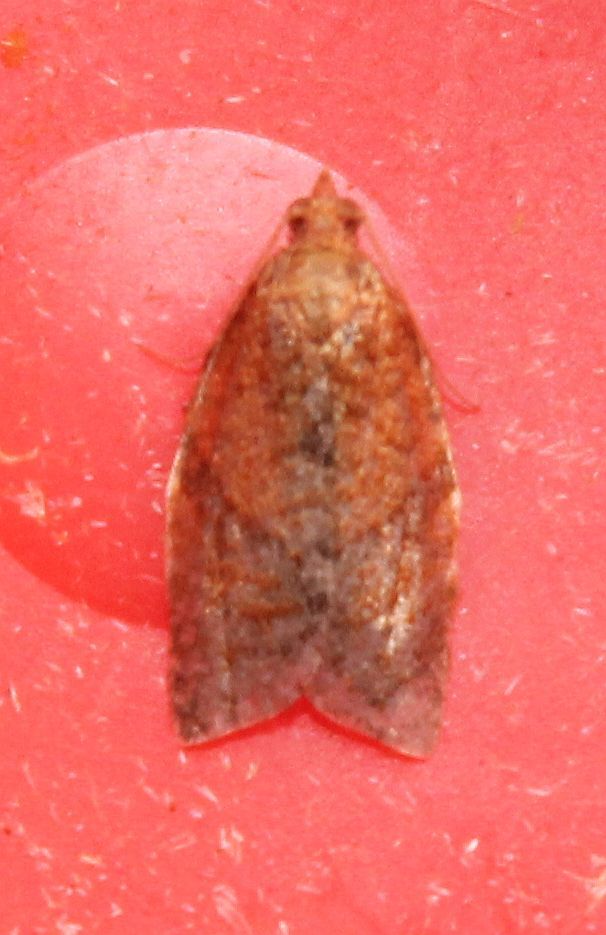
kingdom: Animalia
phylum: Arthropoda
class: Insecta
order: Lepidoptera
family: Tortricidae
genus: Clepsis
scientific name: Clepsis consimilana
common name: Privet tortrix
